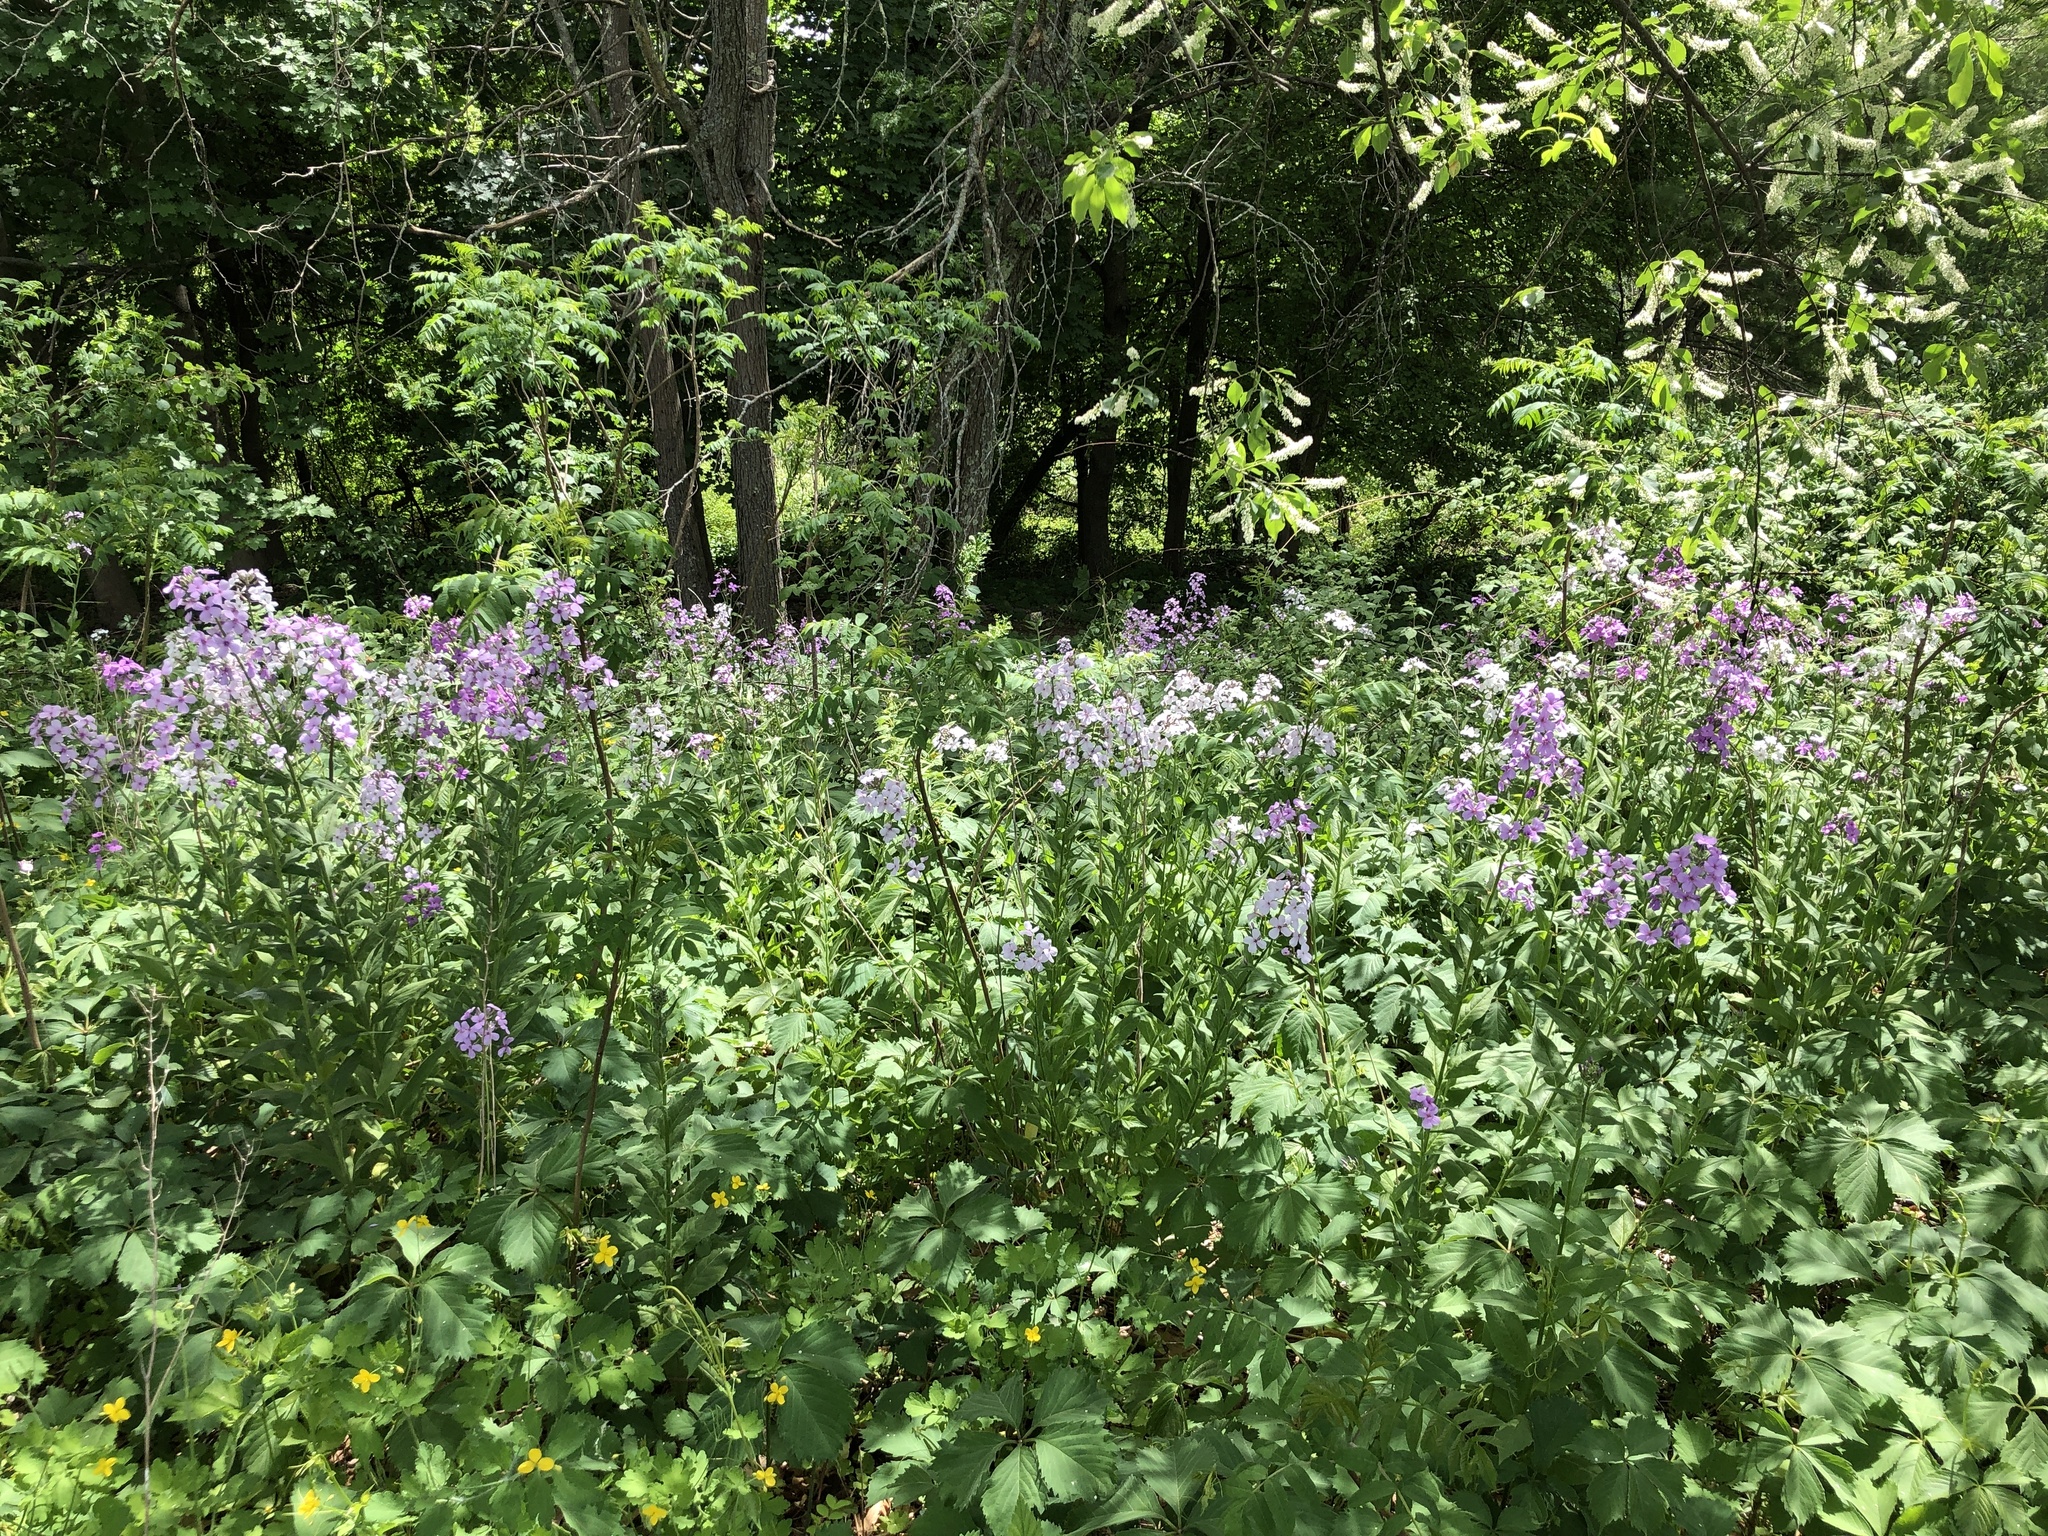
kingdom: Plantae
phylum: Tracheophyta
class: Magnoliopsida
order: Brassicales
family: Brassicaceae
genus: Hesperis
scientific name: Hesperis matronalis
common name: Dame's-violet
